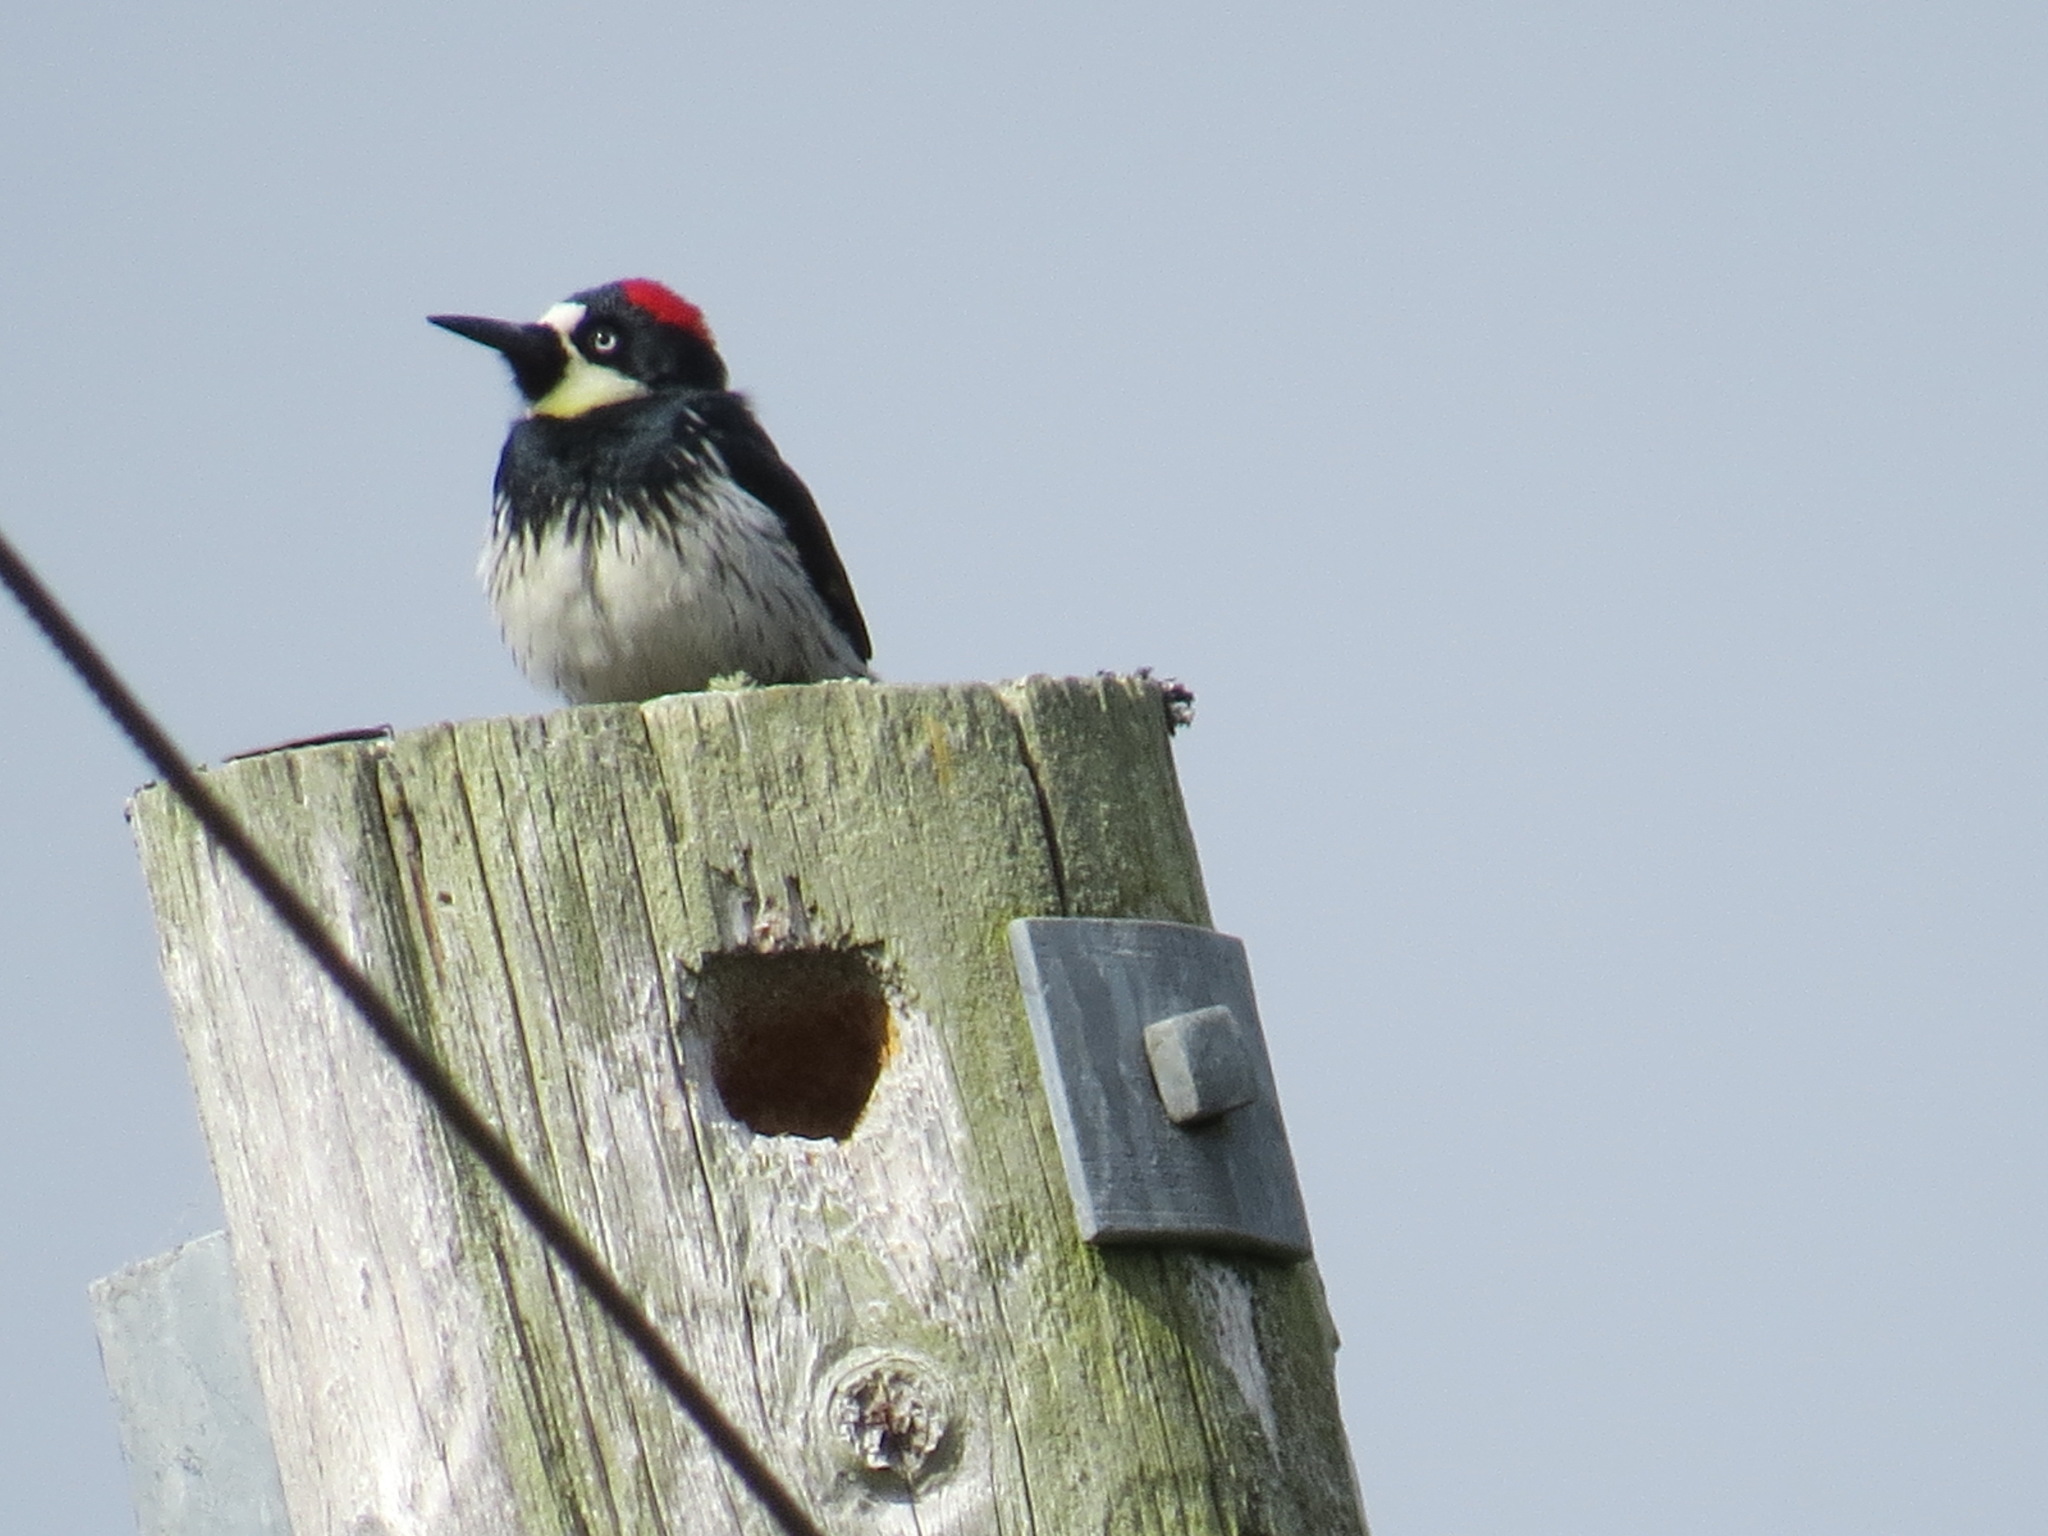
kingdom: Animalia
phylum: Chordata
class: Aves
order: Piciformes
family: Picidae
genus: Melanerpes
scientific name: Melanerpes formicivorus
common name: Acorn woodpecker
